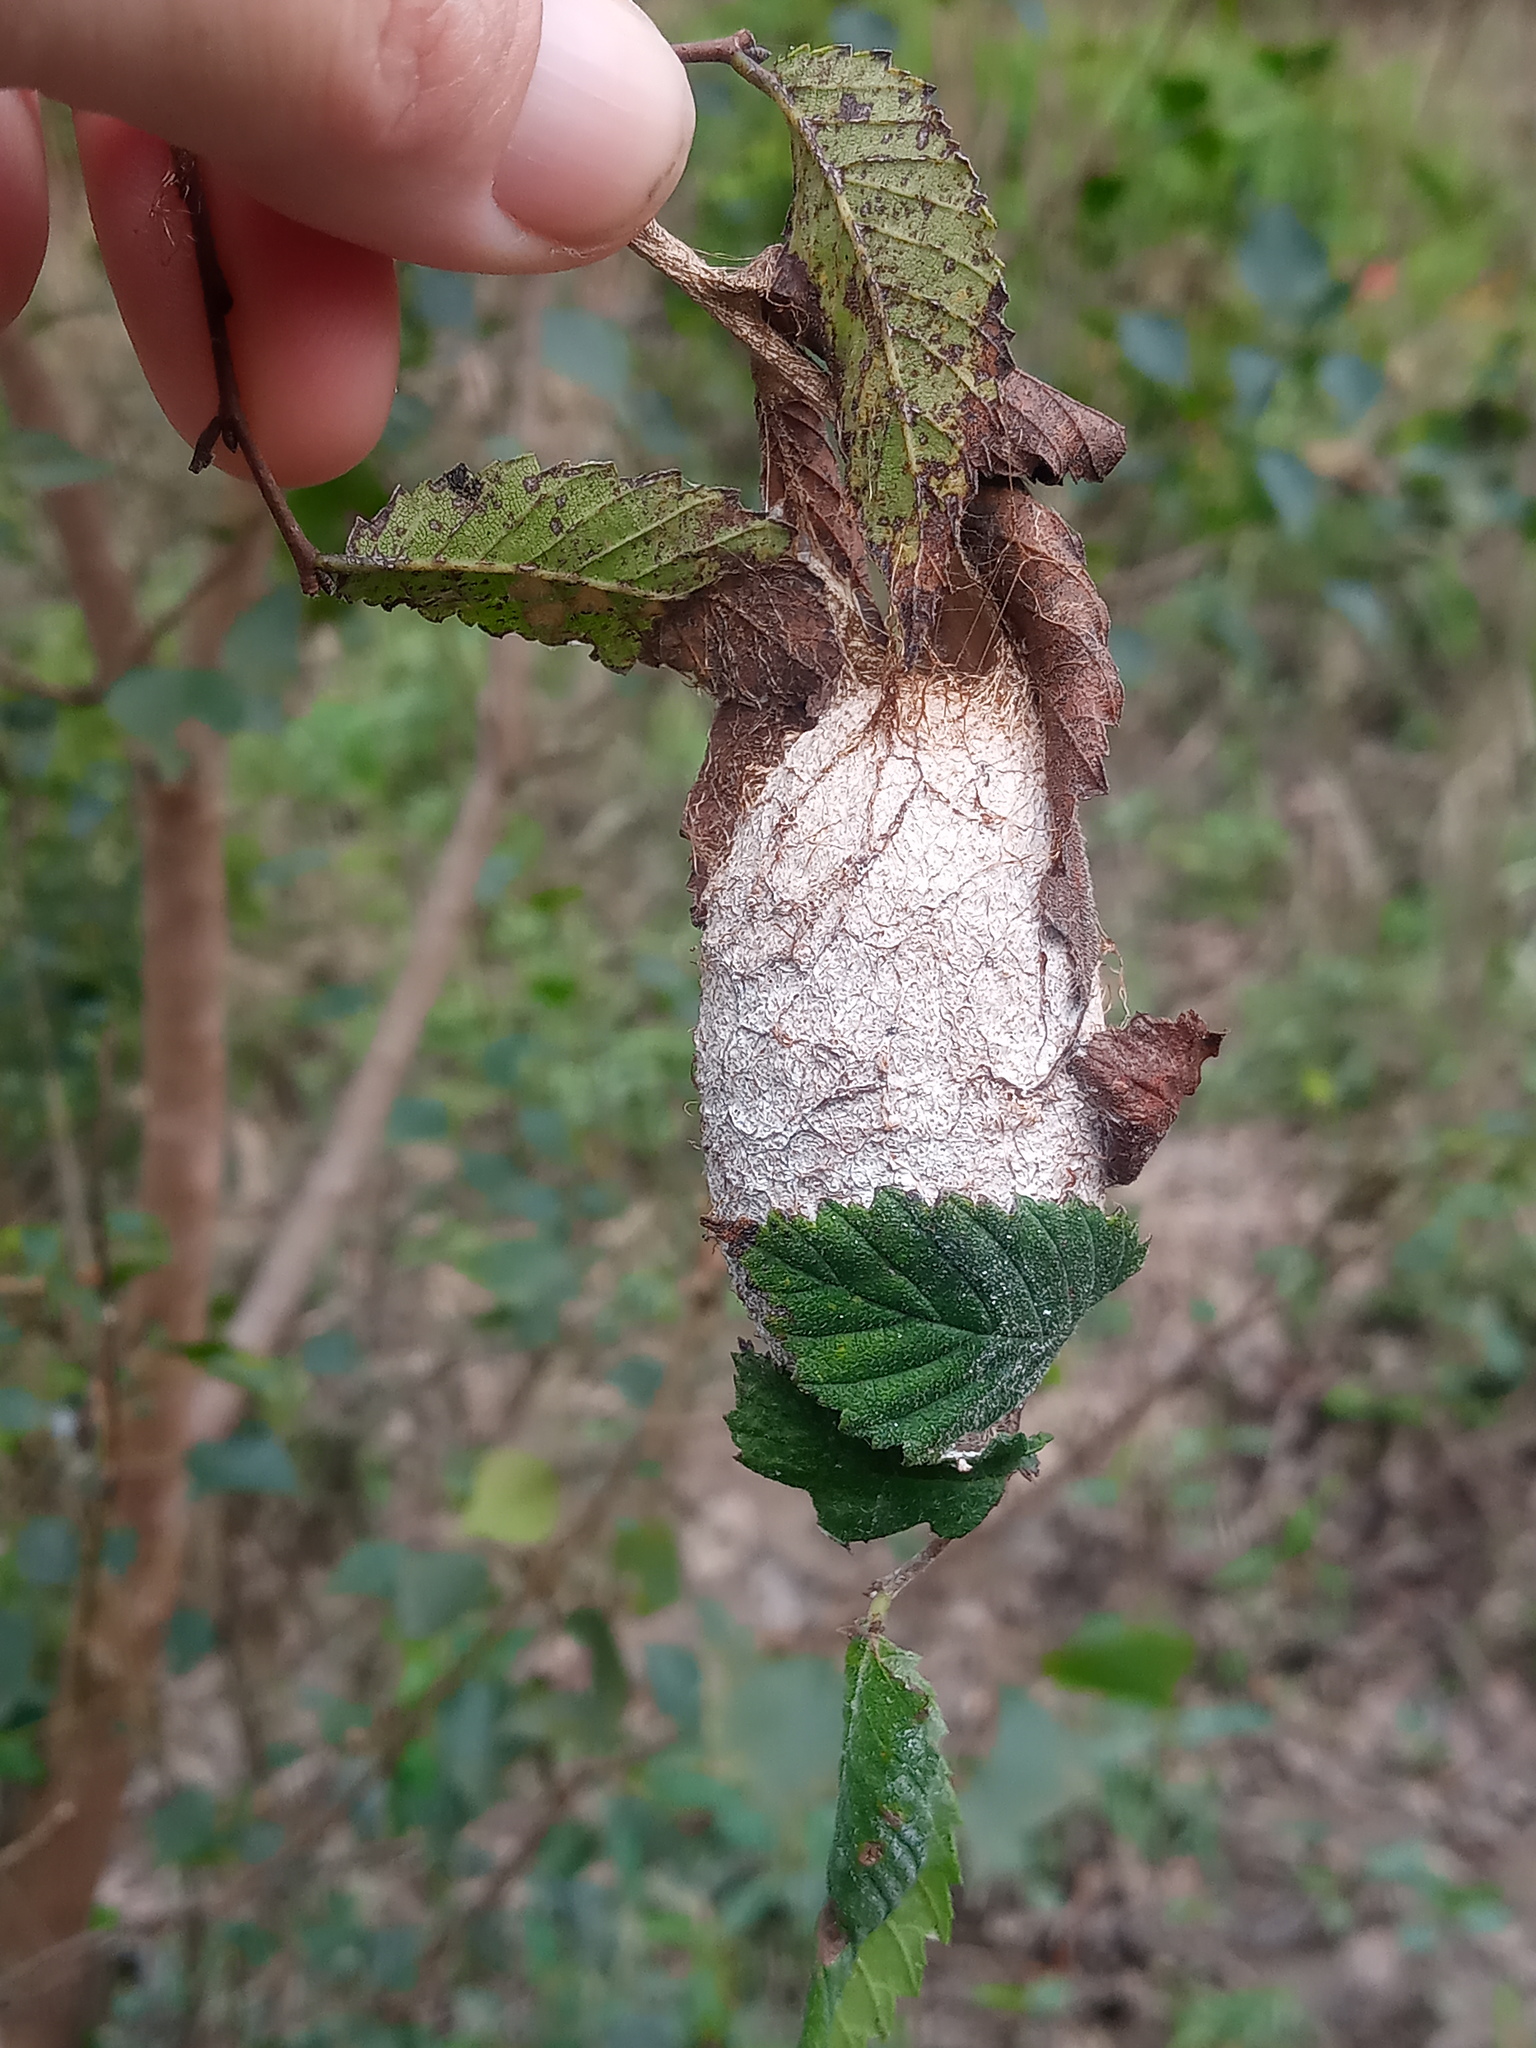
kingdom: Animalia
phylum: Arthropoda
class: Insecta
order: Lepidoptera
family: Saturniidae
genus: Antheraea
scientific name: Antheraea polyphemus
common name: Polyphemus moth
